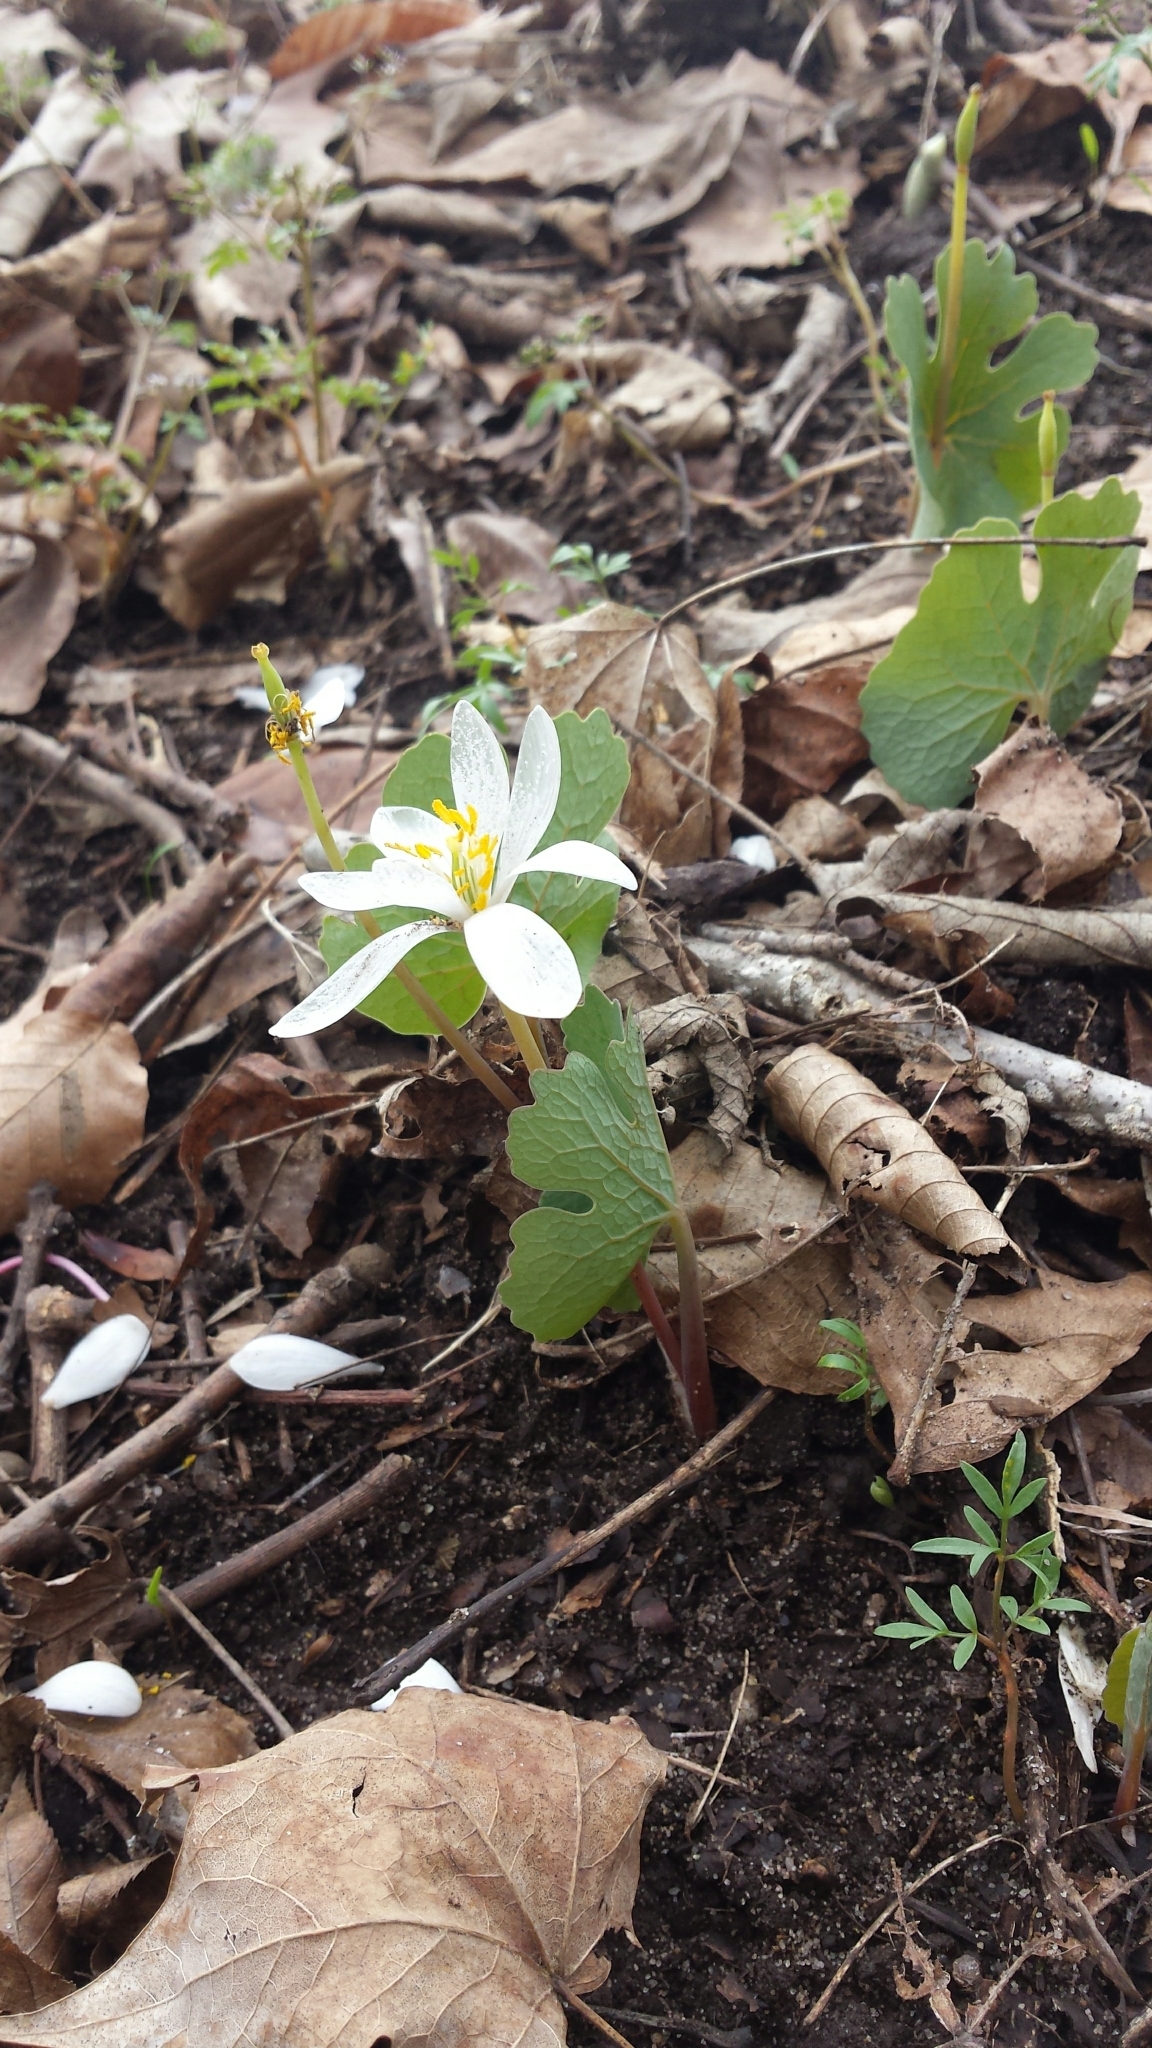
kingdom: Plantae
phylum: Tracheophyta
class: Magnoliopsida
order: Ranunculales
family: Papaveraceae
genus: Sanguinaria
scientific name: Sanguinaria canadensis
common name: Bloodroot
